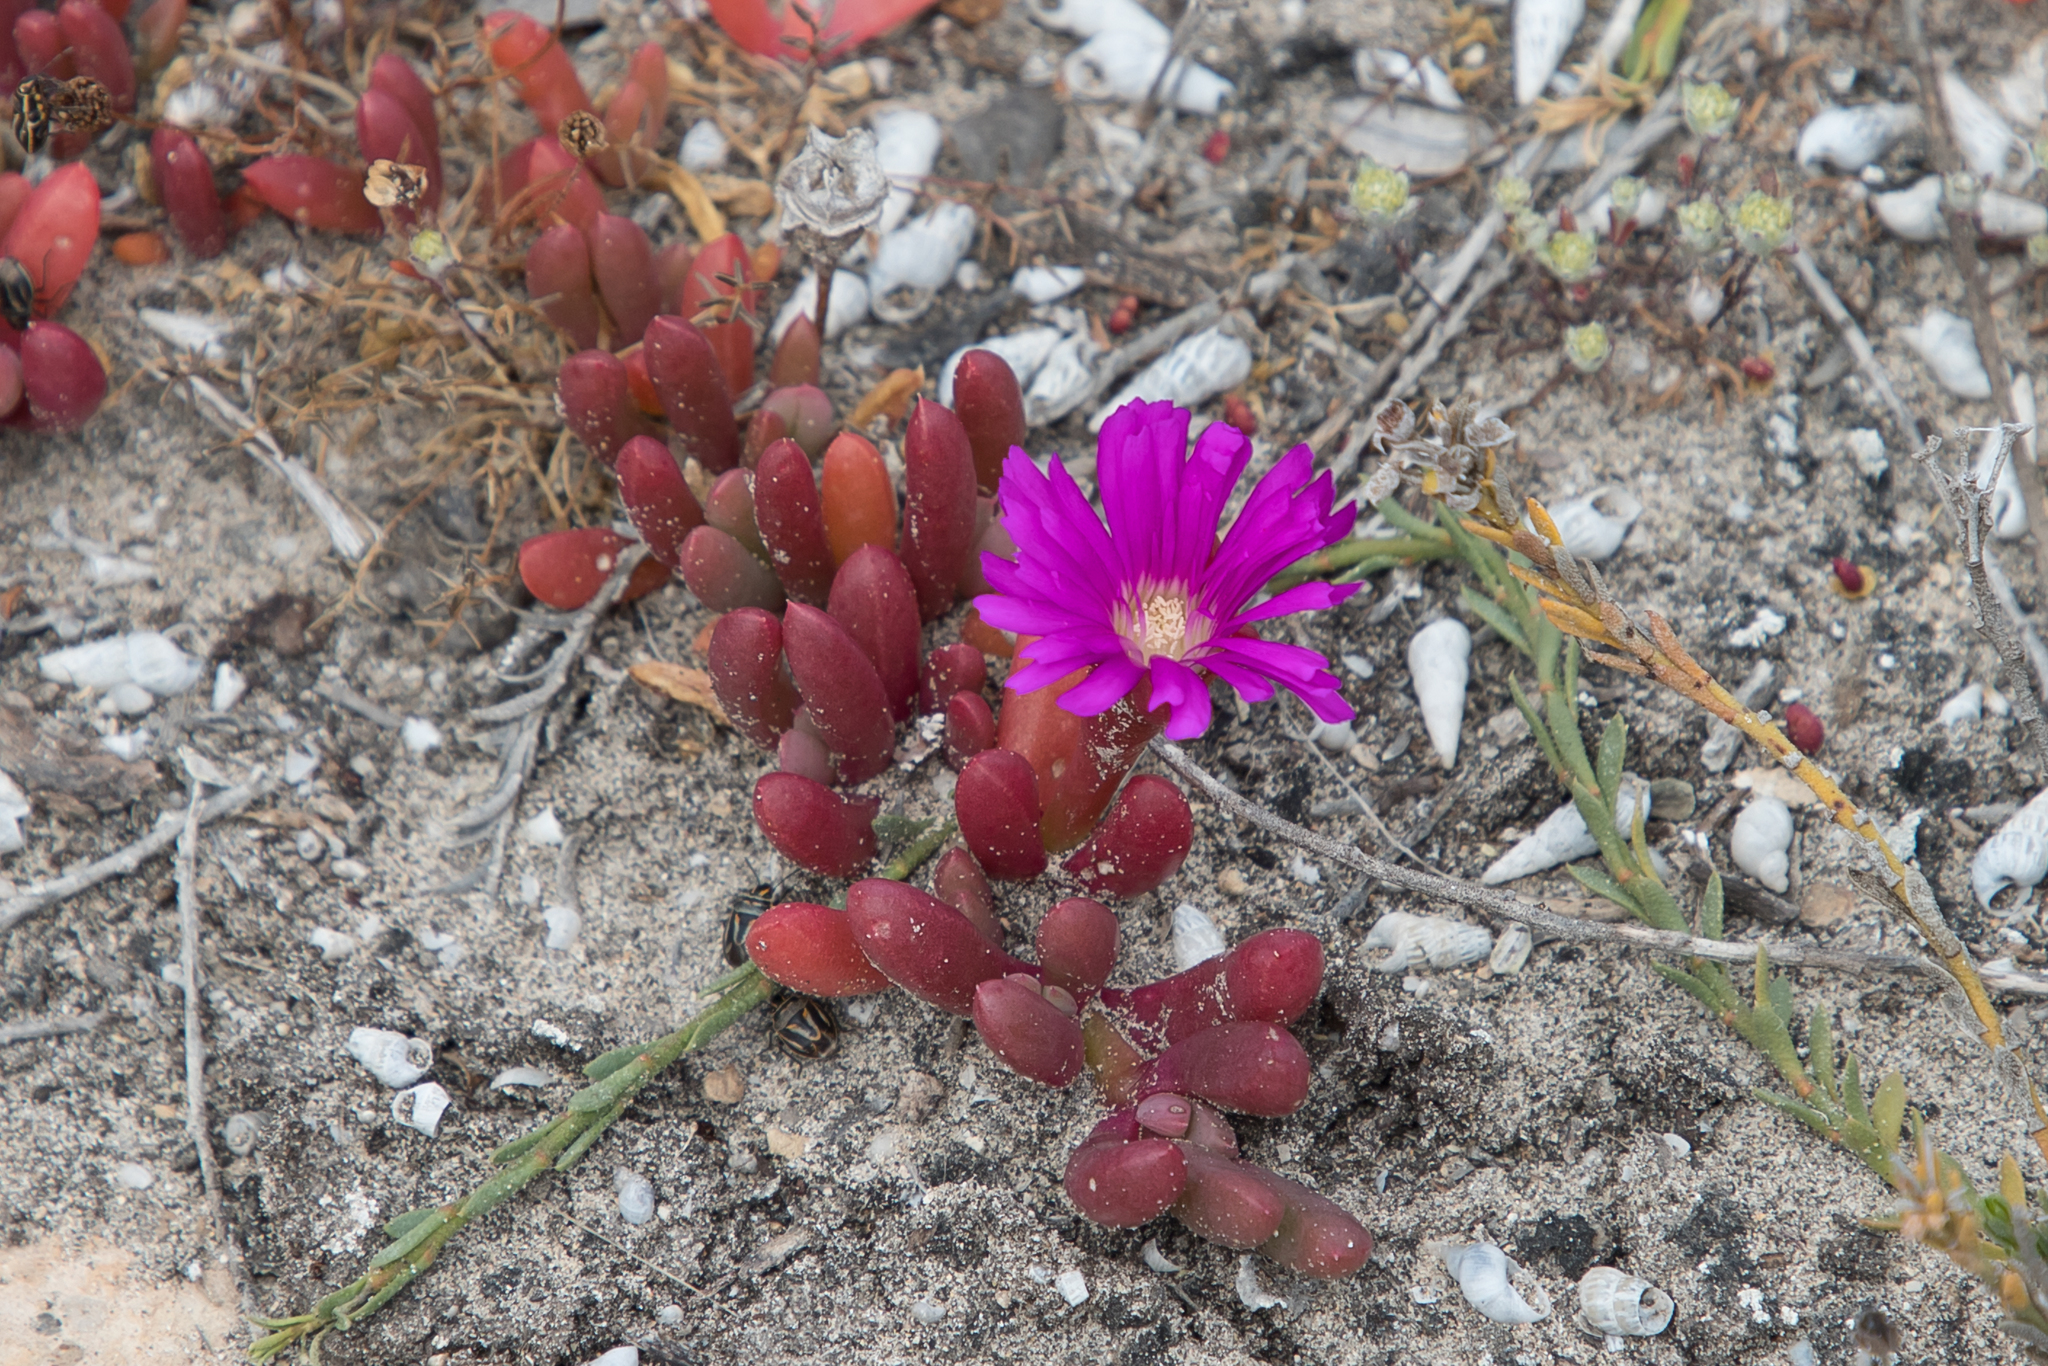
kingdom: Plantae
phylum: Tracheophyta
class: Magnoliopsida
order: Caryophyllales
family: Aizoaceae
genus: Disphyma
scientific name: Disphyma clavellatum
